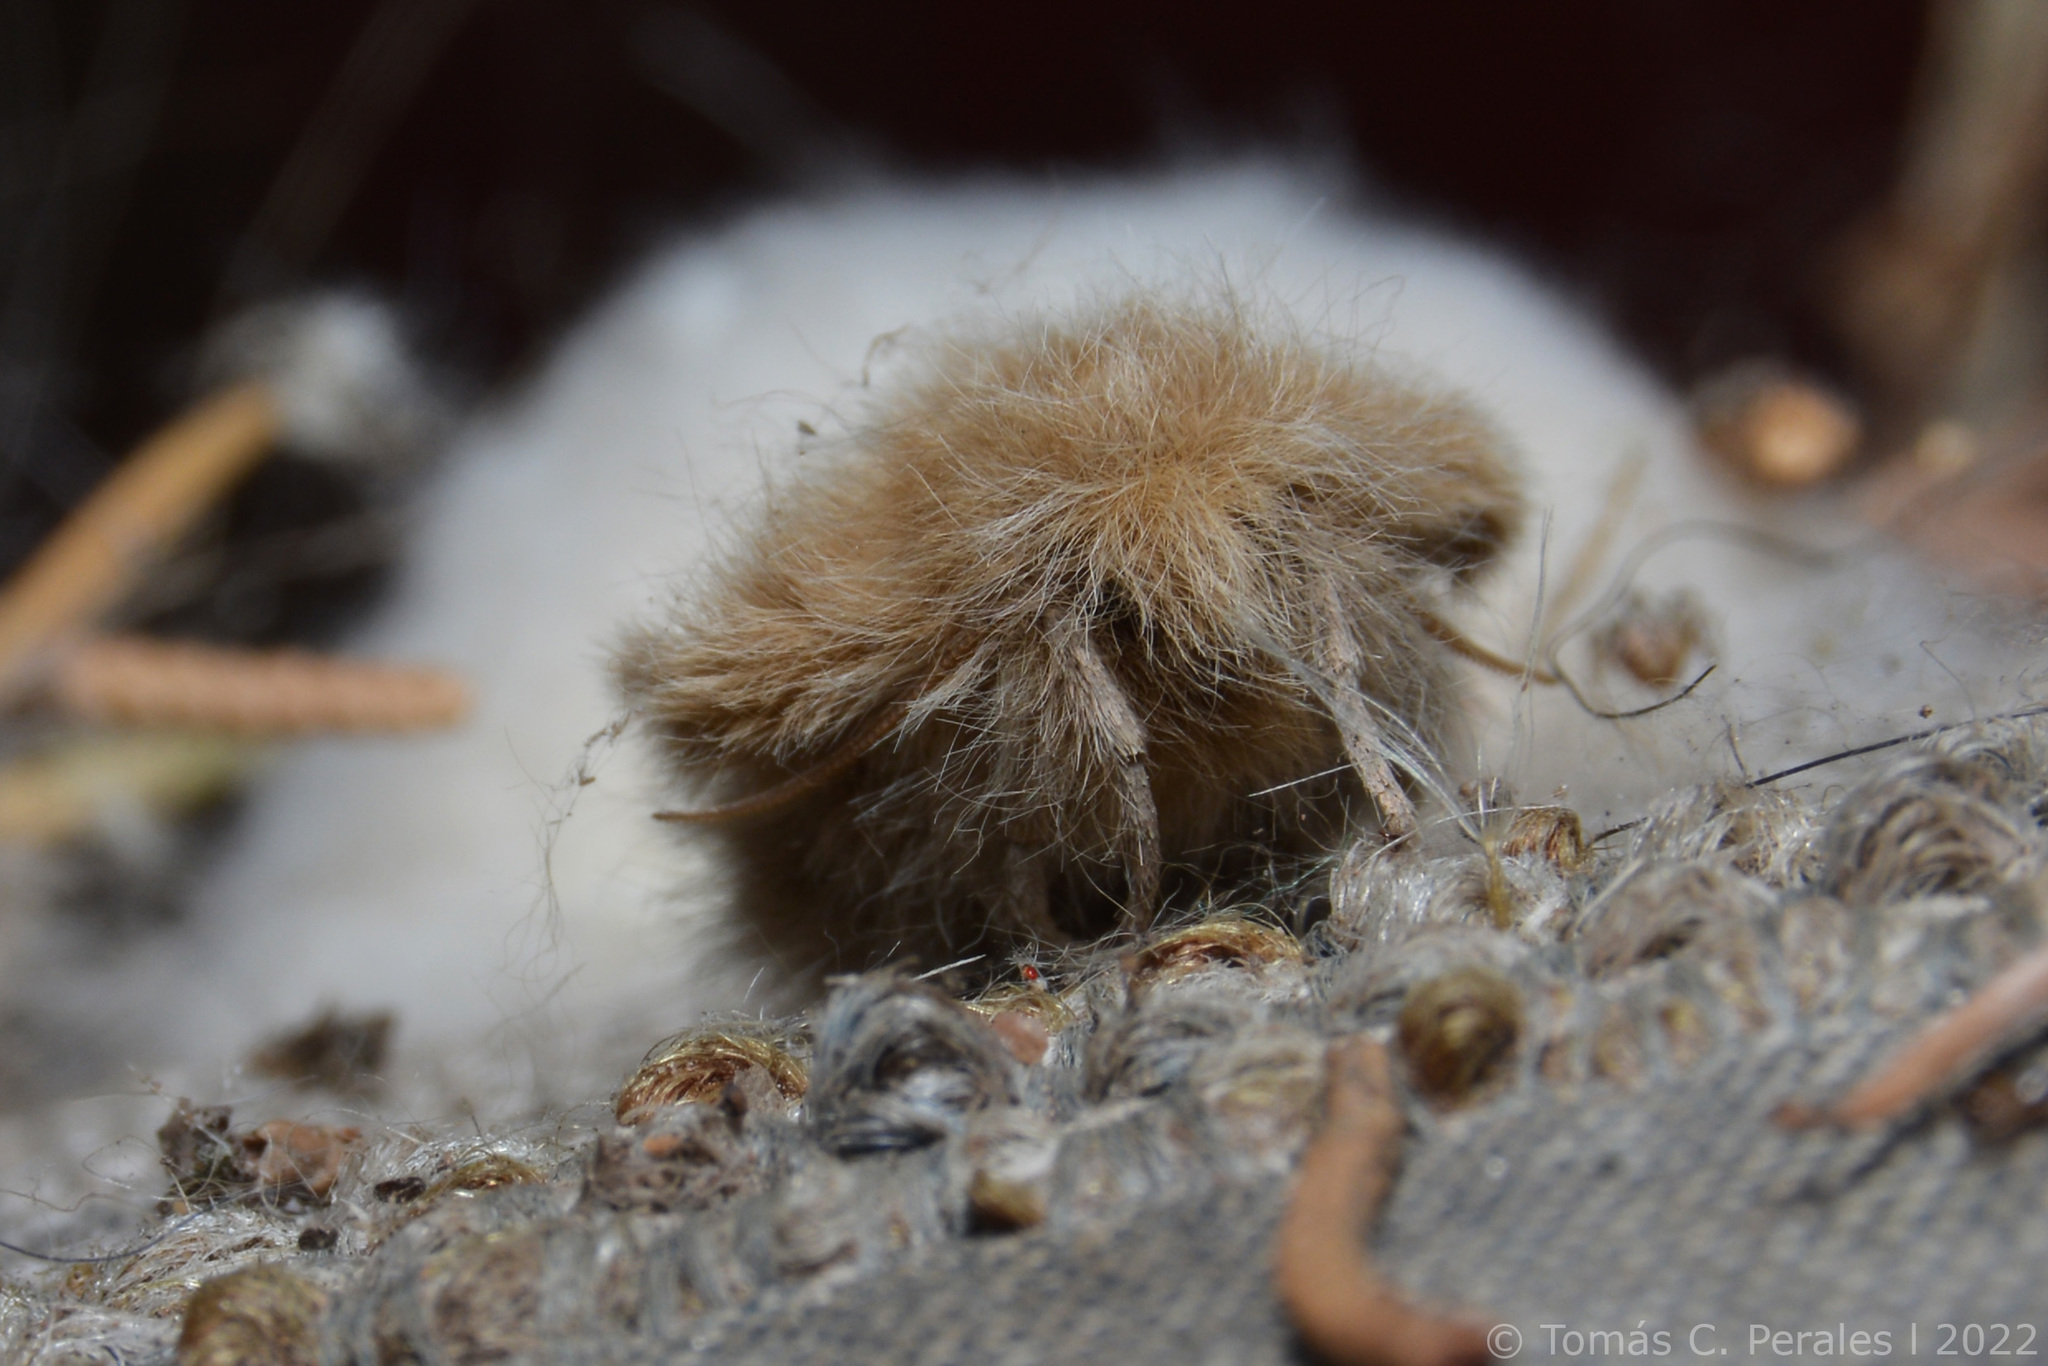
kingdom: Animalia
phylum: Arthropoda
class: Insecta
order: Lepidoptera
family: Erebidae
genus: Paracles
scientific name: Paracles deserticola
